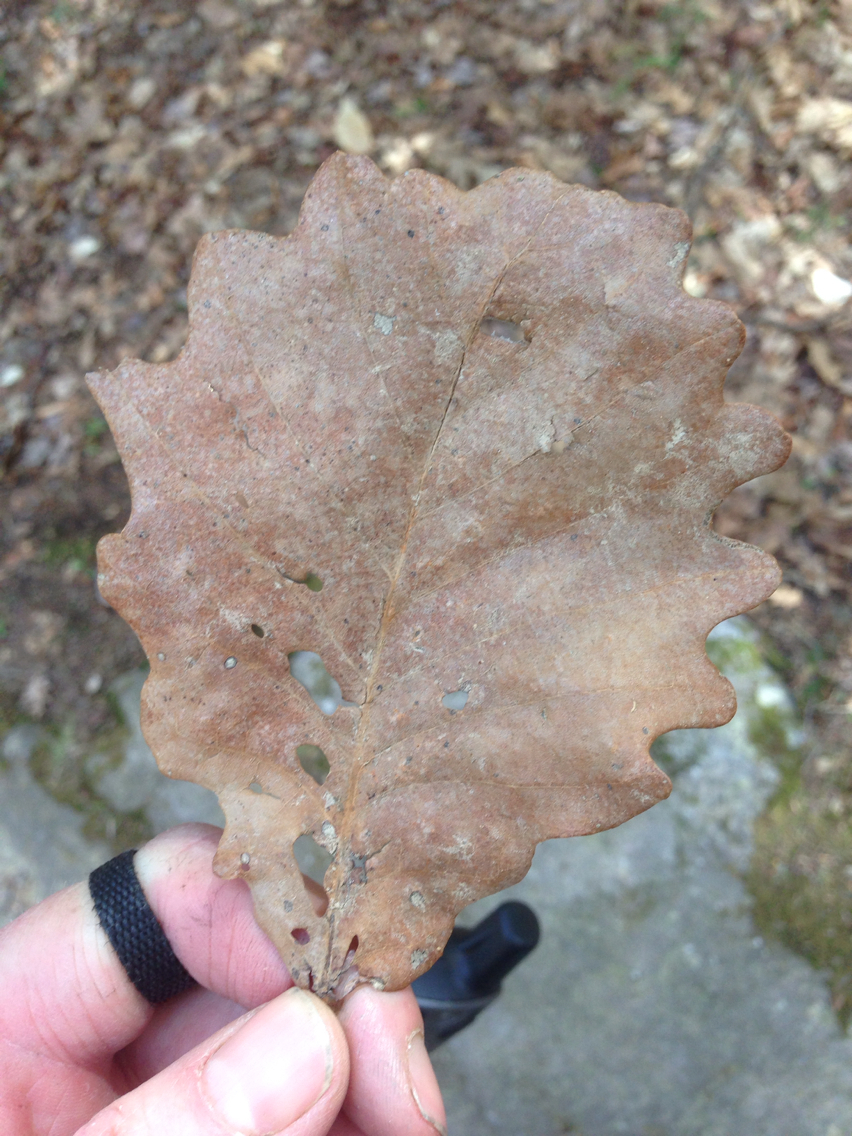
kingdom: Plantae
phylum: Tracheophyta
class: Magnoliopsida
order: Fagales
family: Fagaceae
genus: Quercus
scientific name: Quercus
